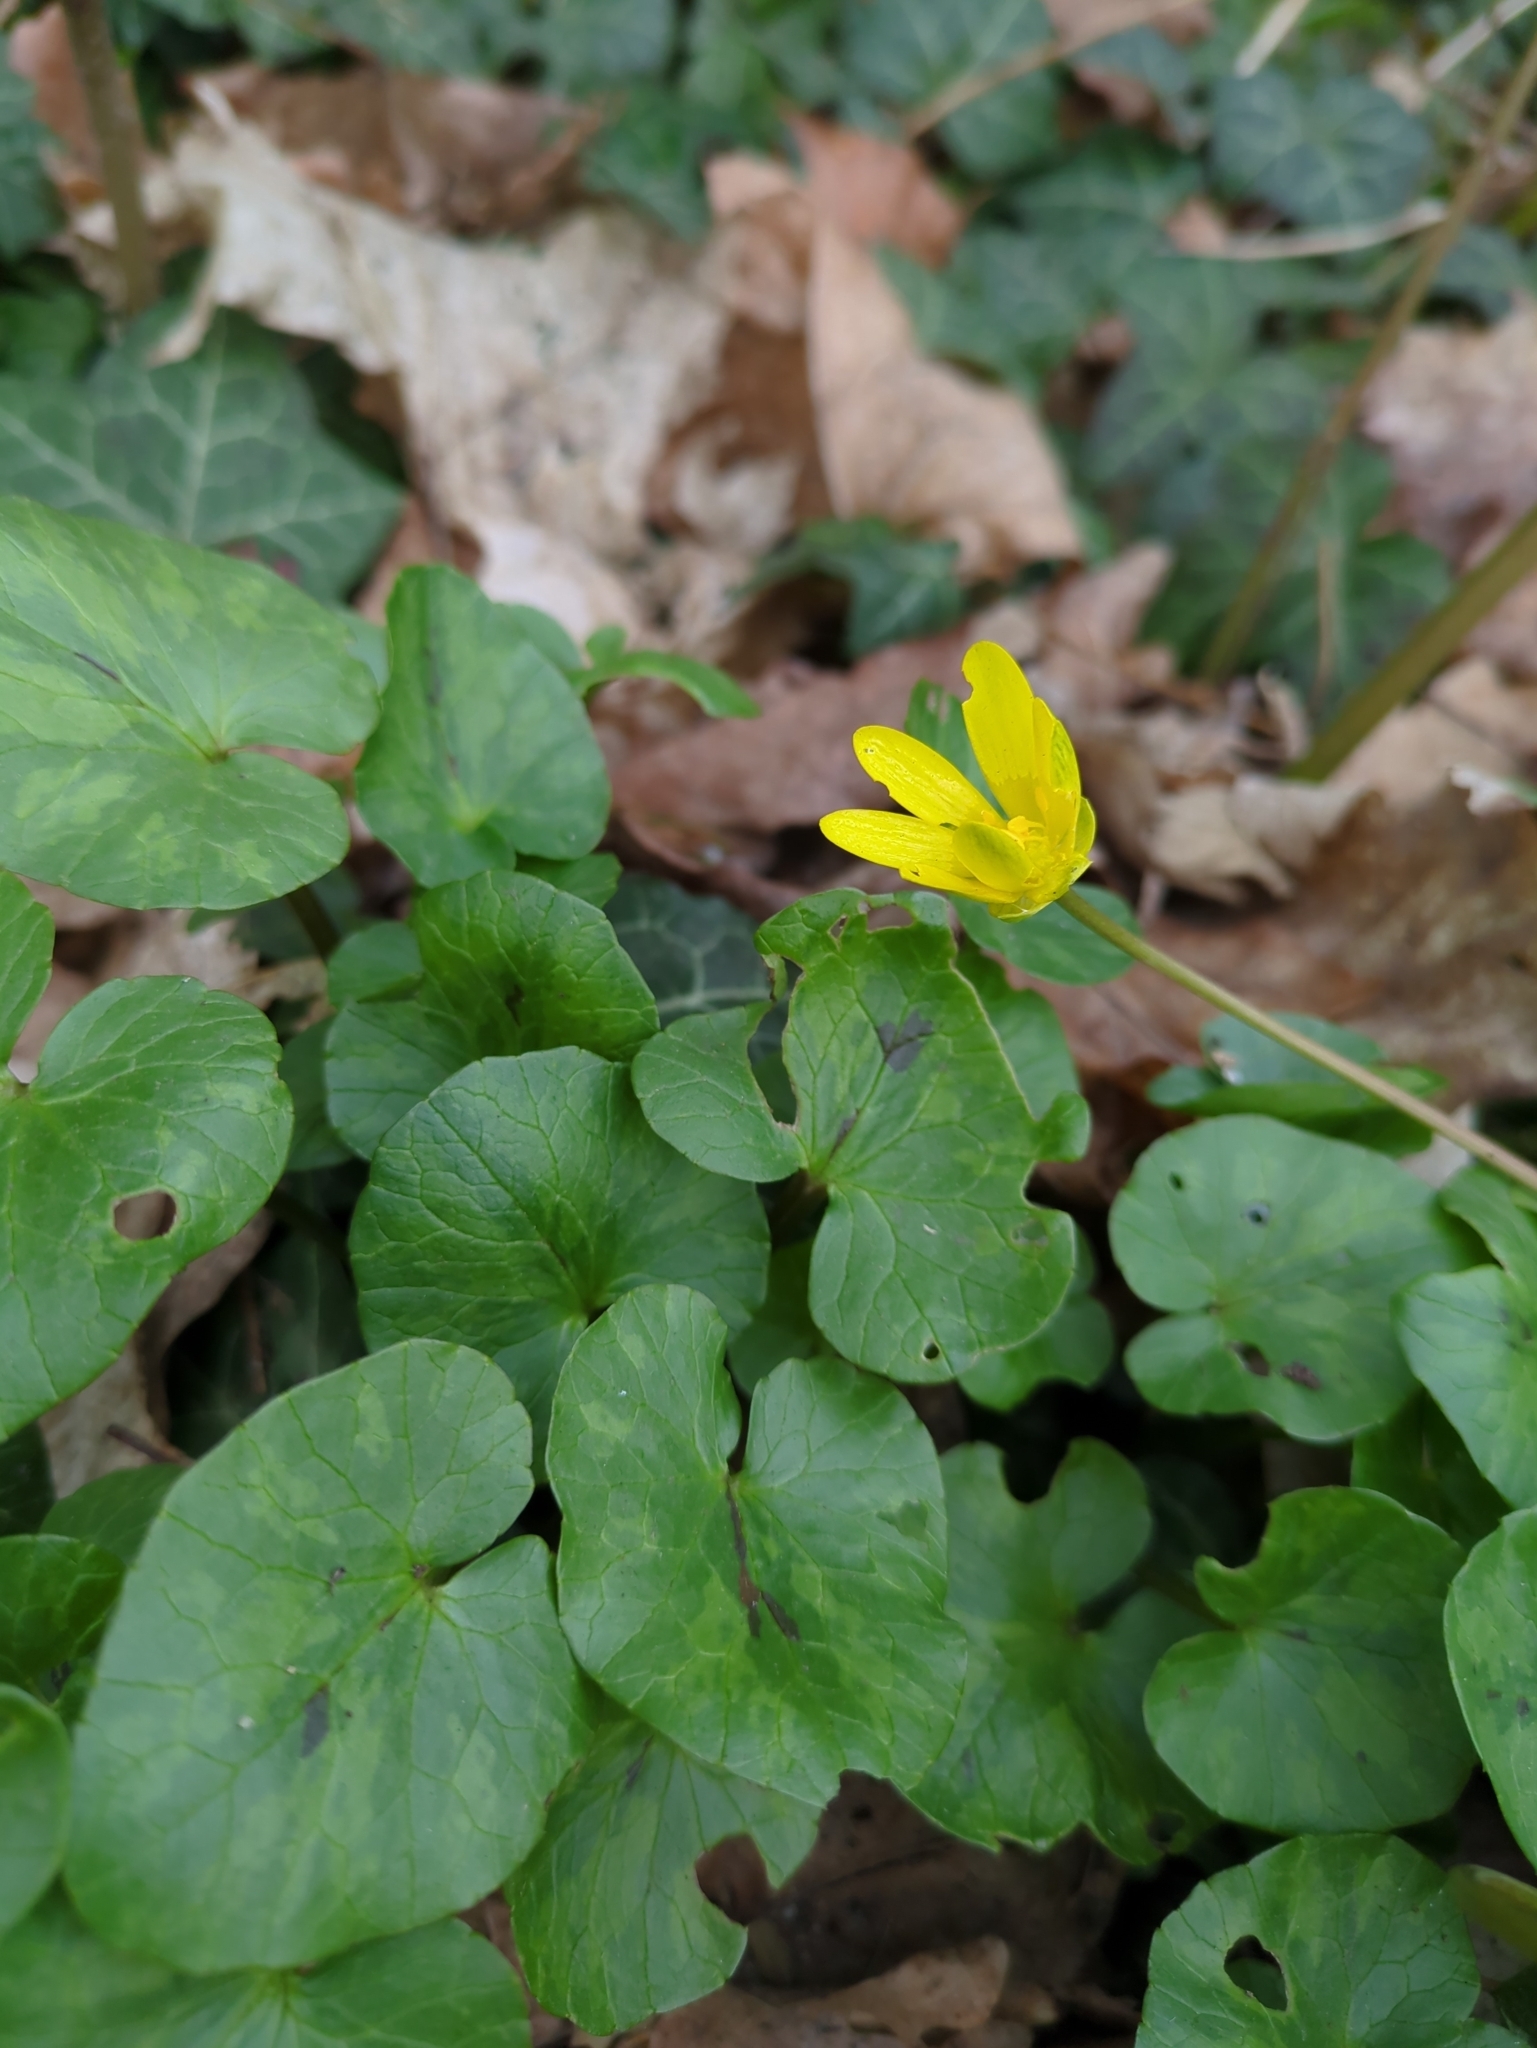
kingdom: Plantae
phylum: Tracheophyta
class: Magnoliopsida
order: Ranunculales
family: Ranunculaceae
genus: Ficaria
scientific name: Ficaria verna
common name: Lesser celandine
